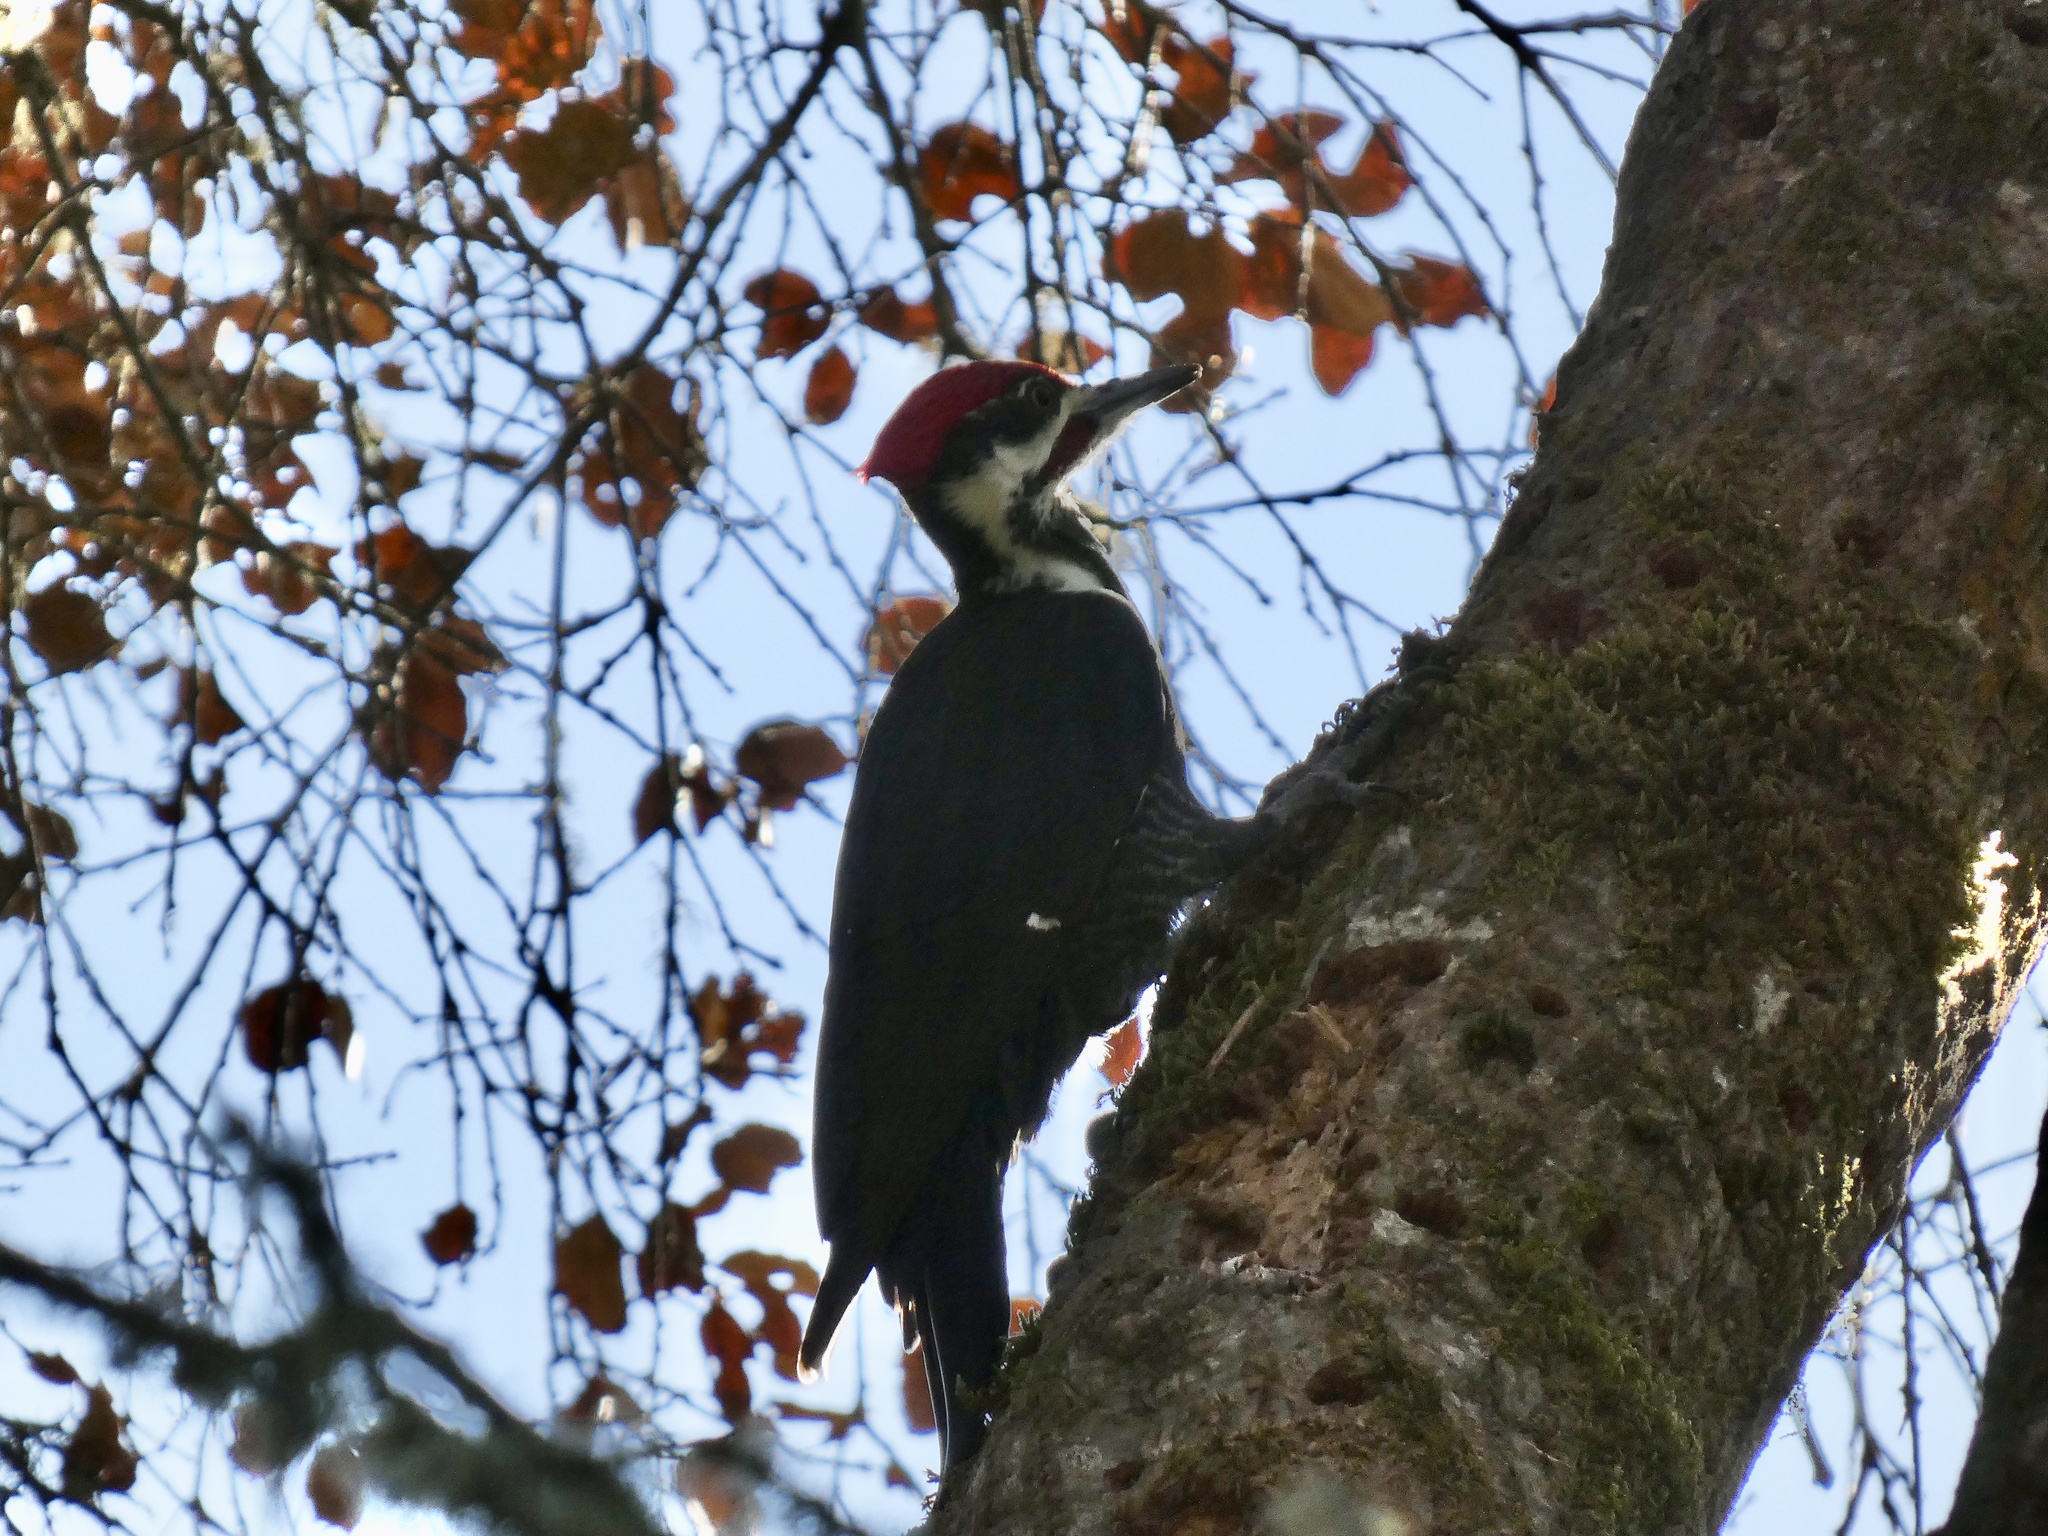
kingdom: Animalia
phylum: Chordata
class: Aves
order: Piciformes
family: Picidae
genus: Dryocopus
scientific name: Dryocopus pileatus
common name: Pileated woodpecker
